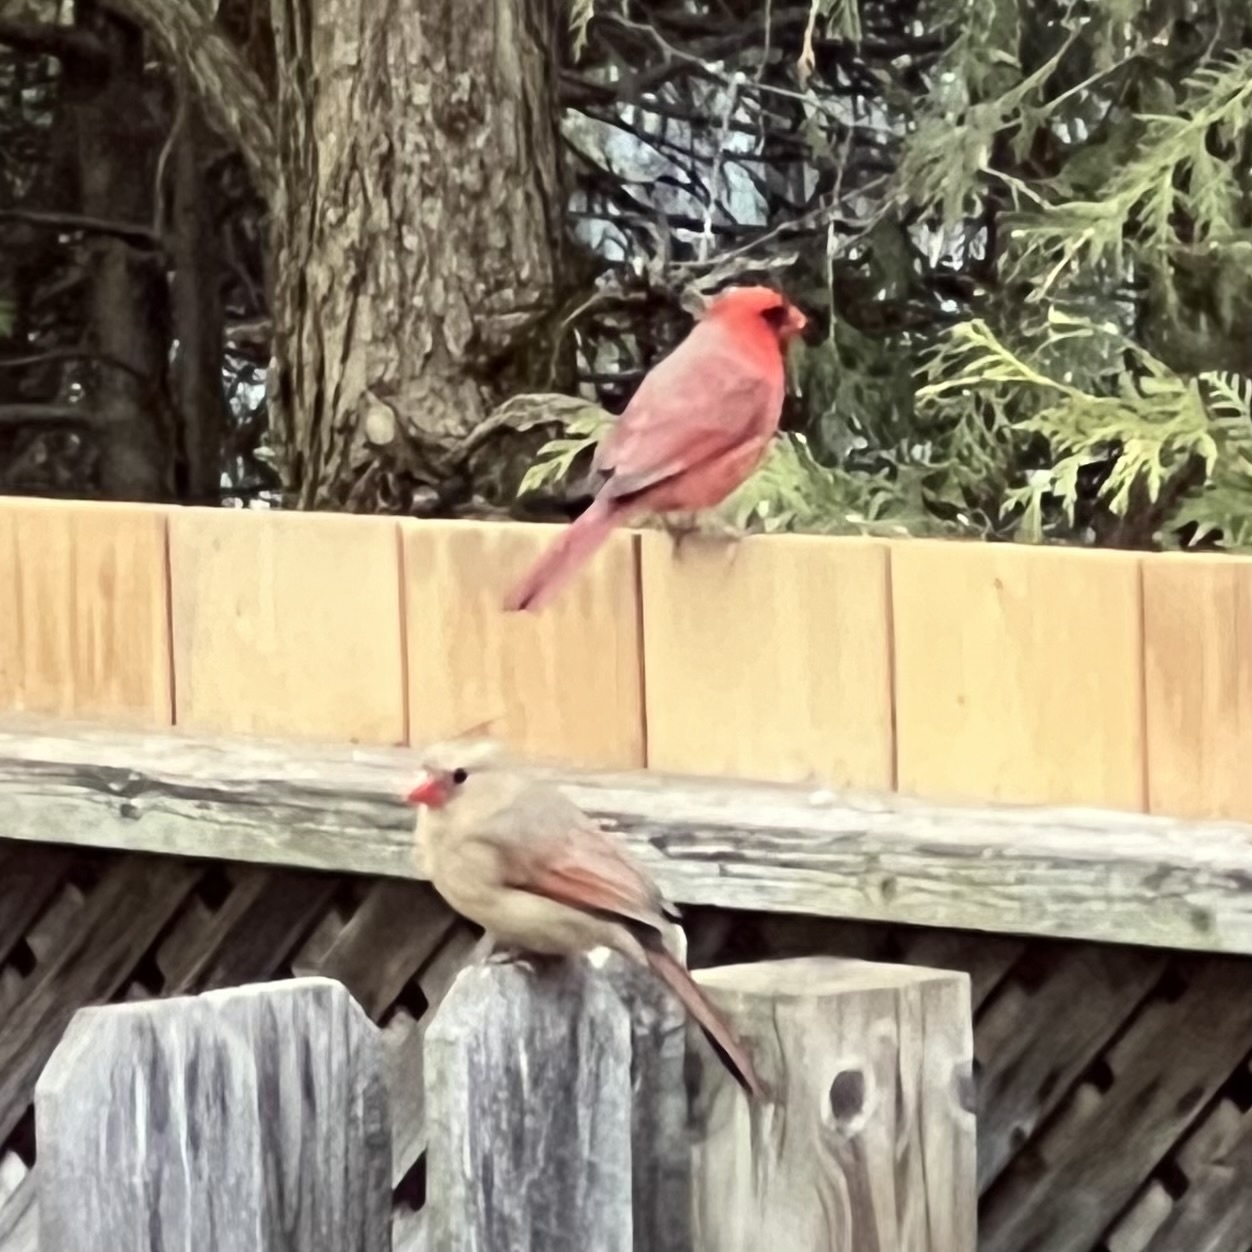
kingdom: Animalia
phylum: Chordata
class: Aves
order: Passeriformes
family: Cardinalidae
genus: Cardinalis
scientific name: Cardinalis cardinalis
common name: Northern cardinal
